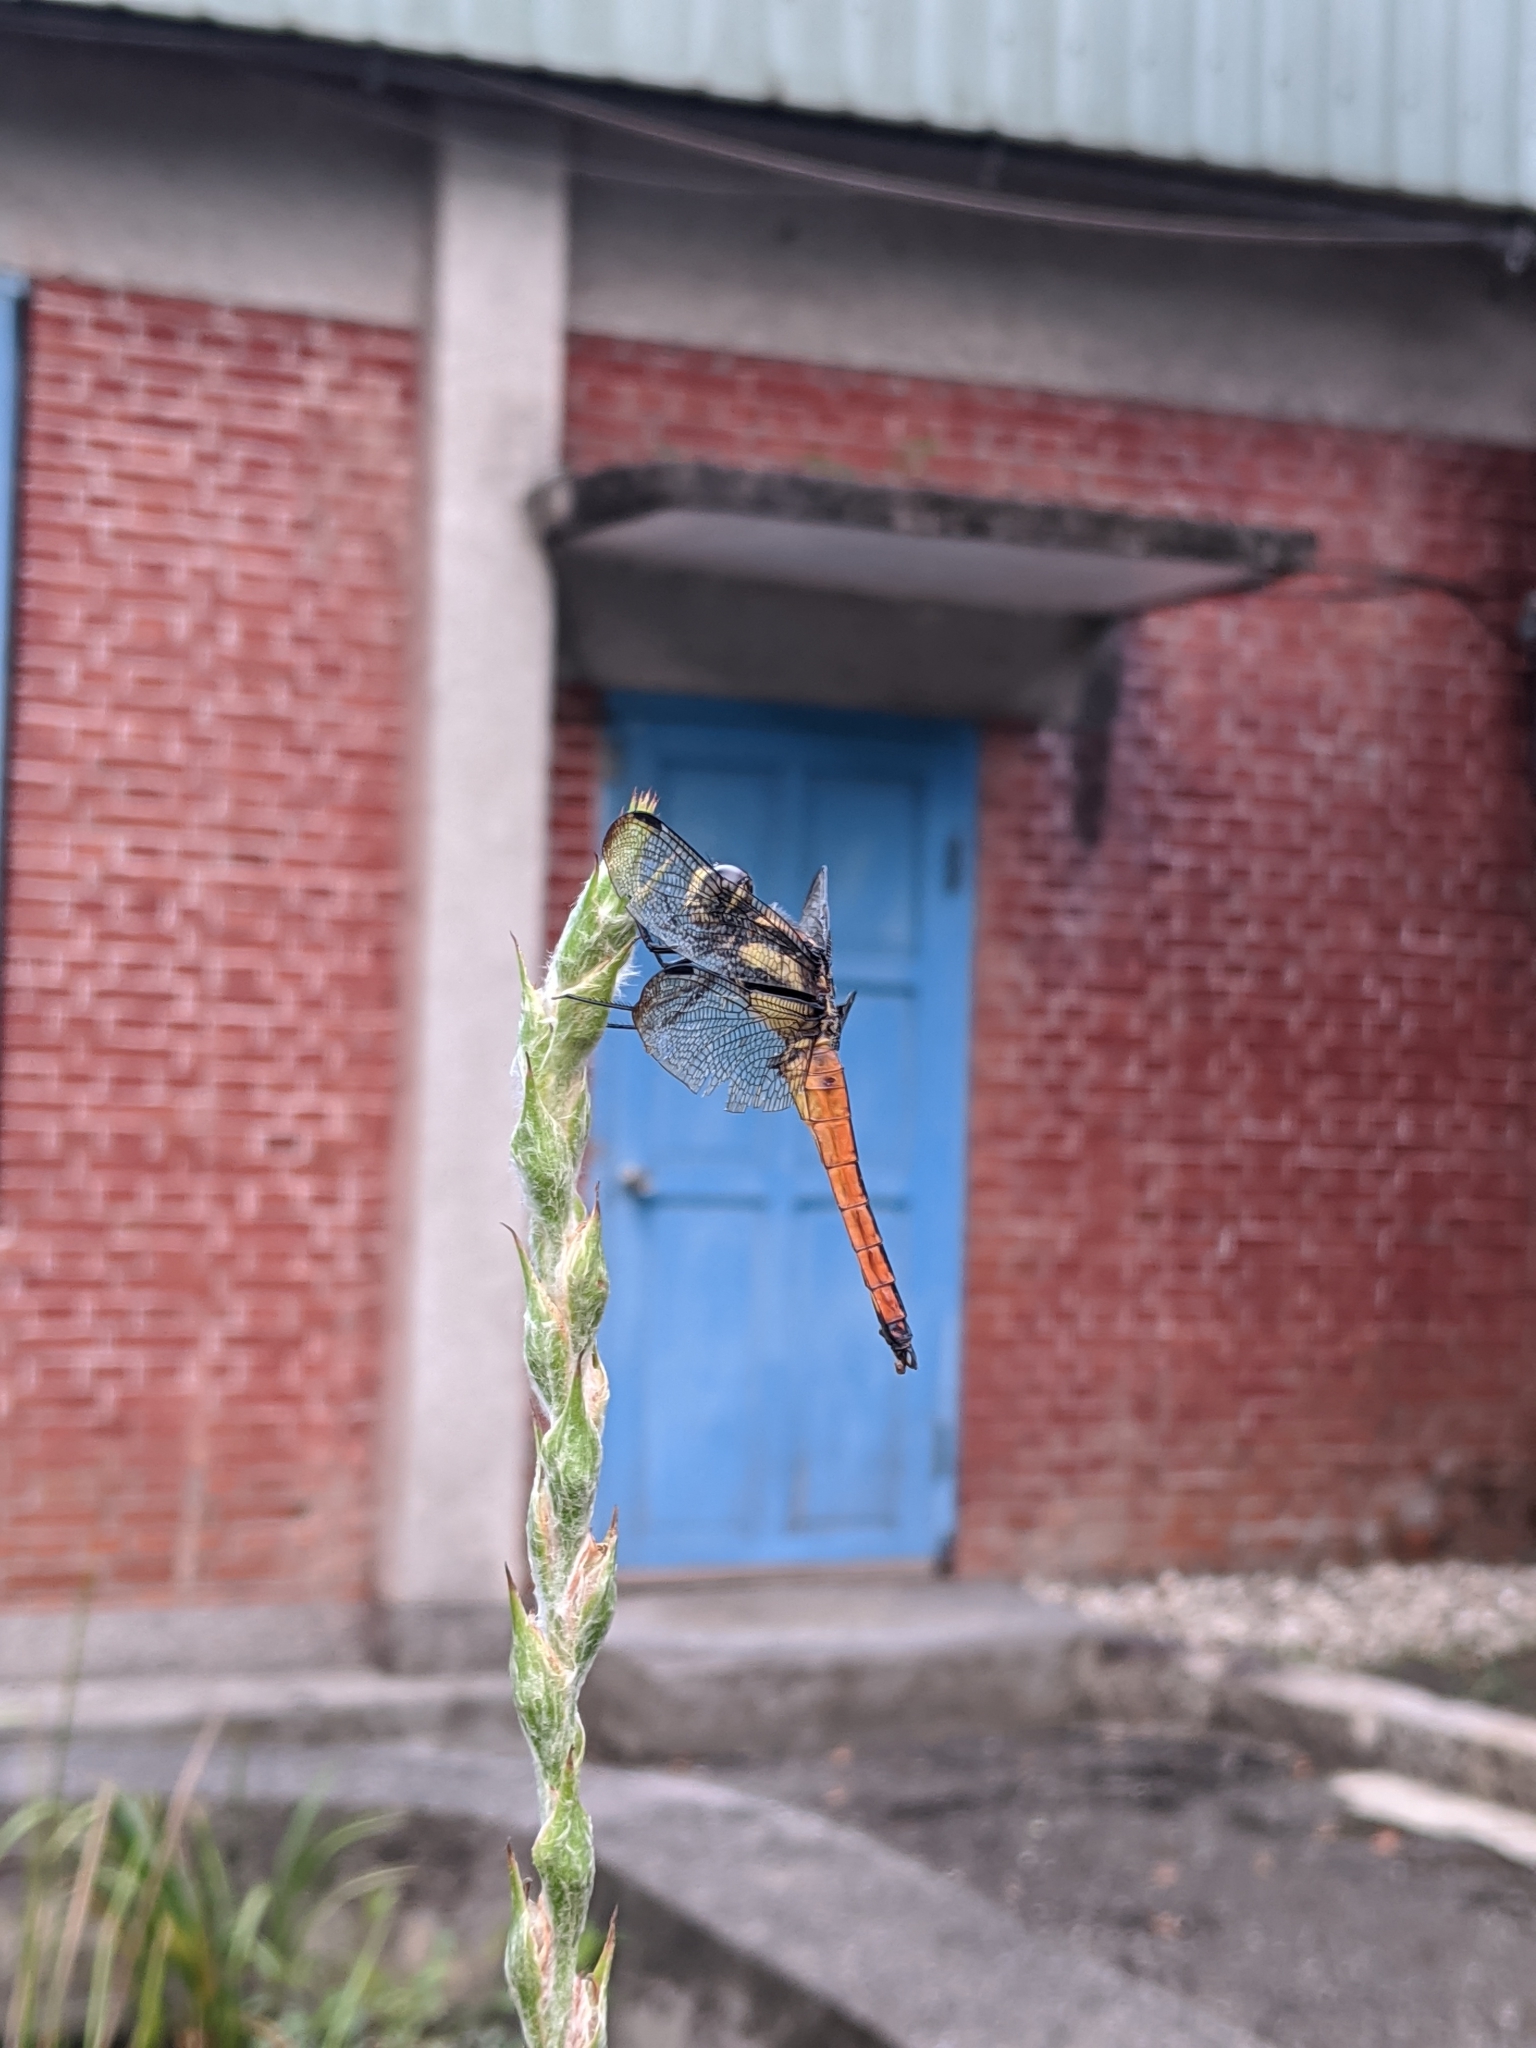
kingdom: Animalia
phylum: Arthropoda
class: Insecta
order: Odonata
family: Libellulidae
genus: Lyriothemis
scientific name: Lyriothemis tricolor
